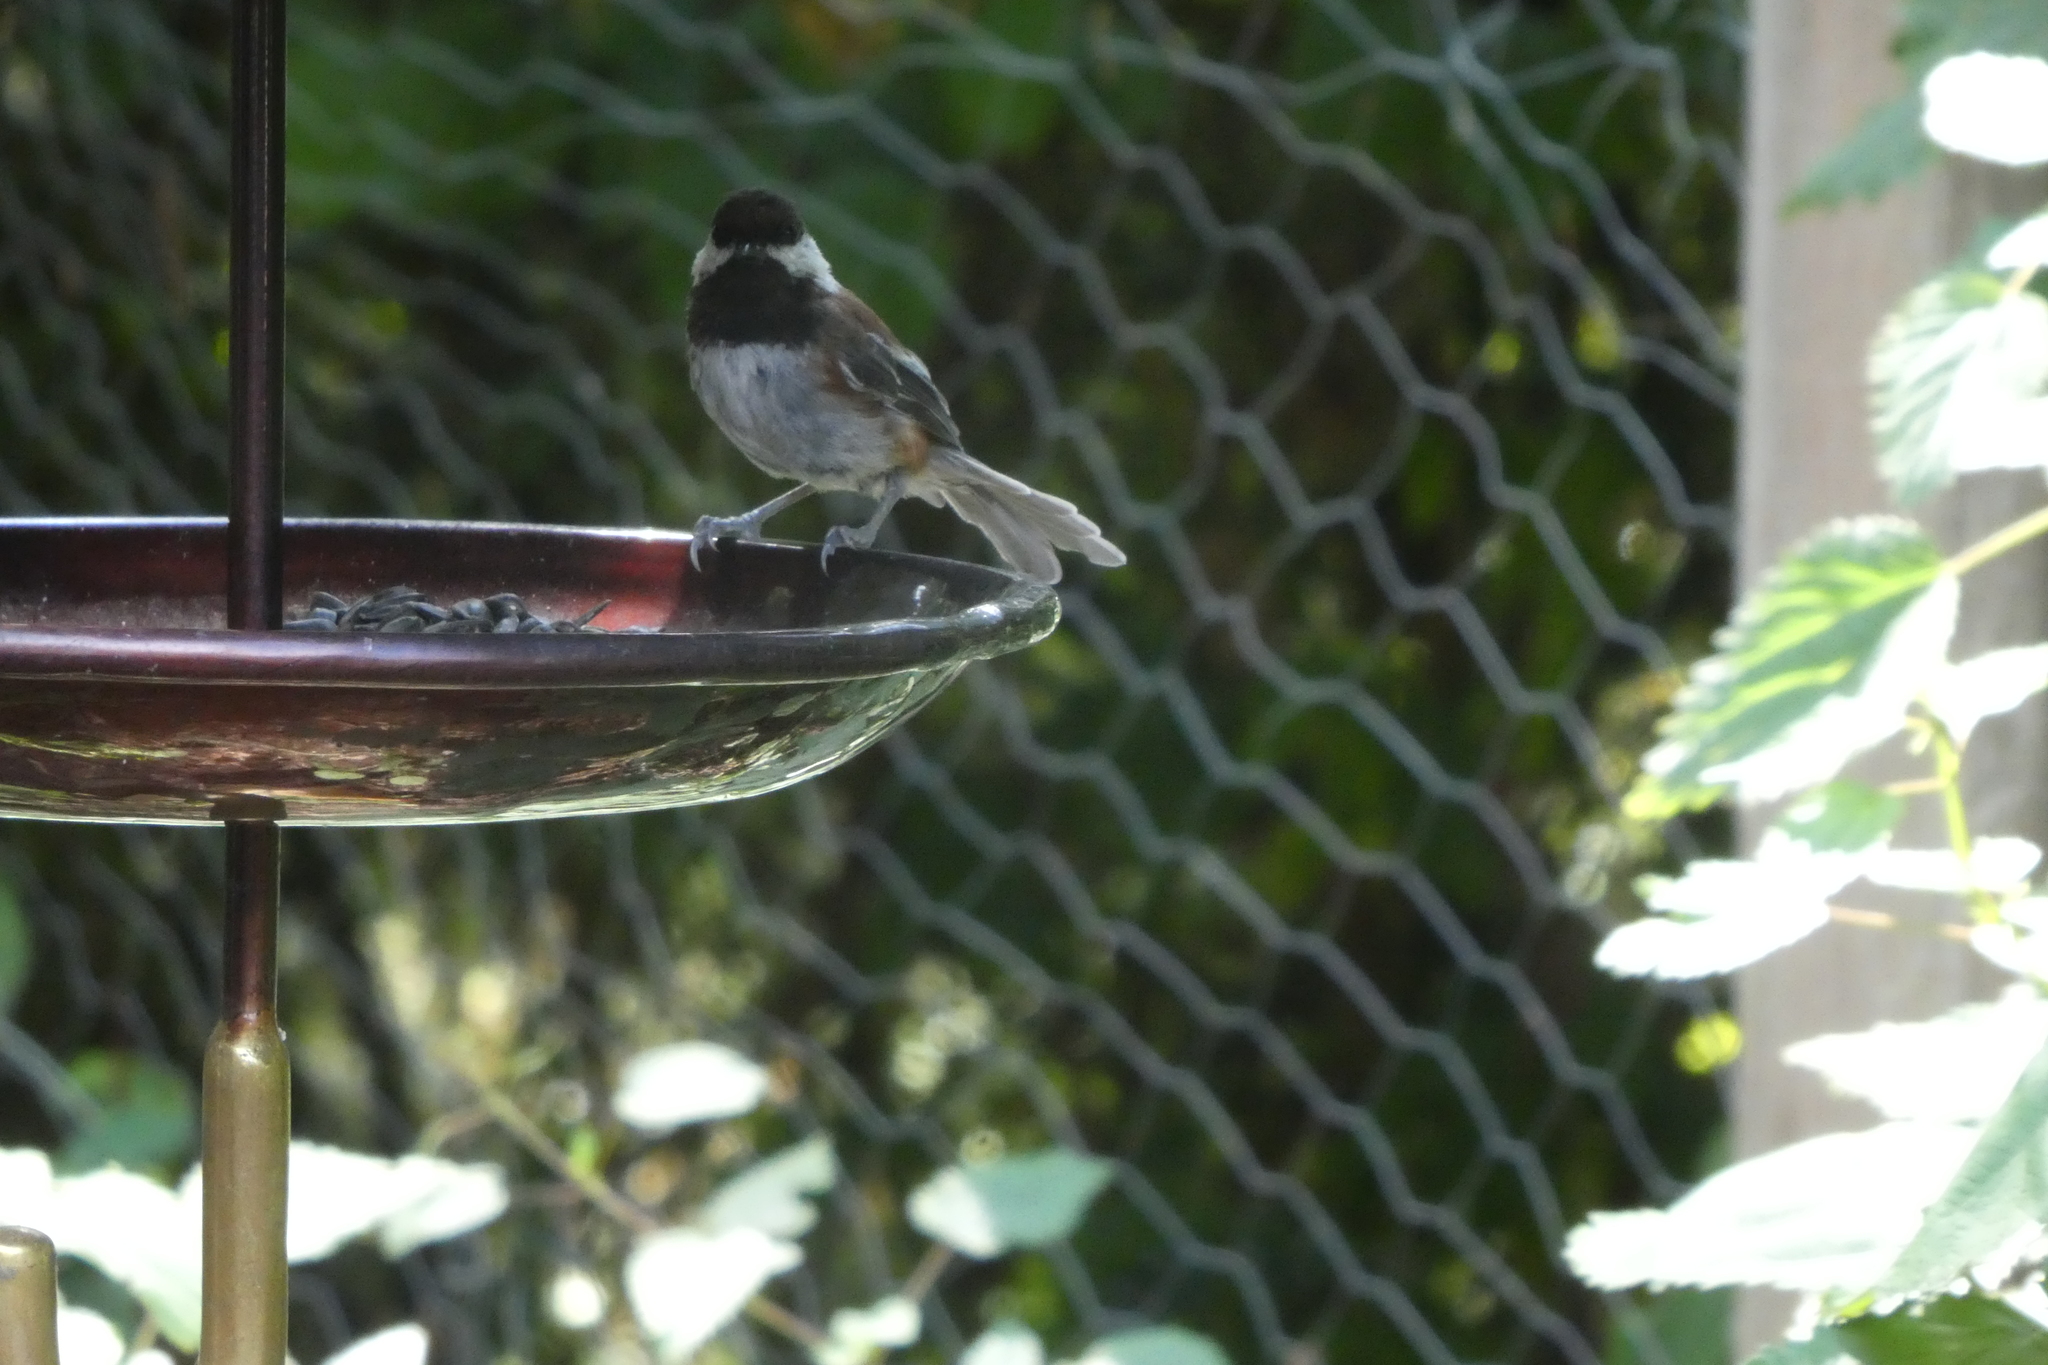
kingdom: Animalia
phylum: Chordata
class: Aves
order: Passeriformes
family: Paridae
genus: Poecile
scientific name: Poecile rufescens
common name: Chestnut-backed chickadee
